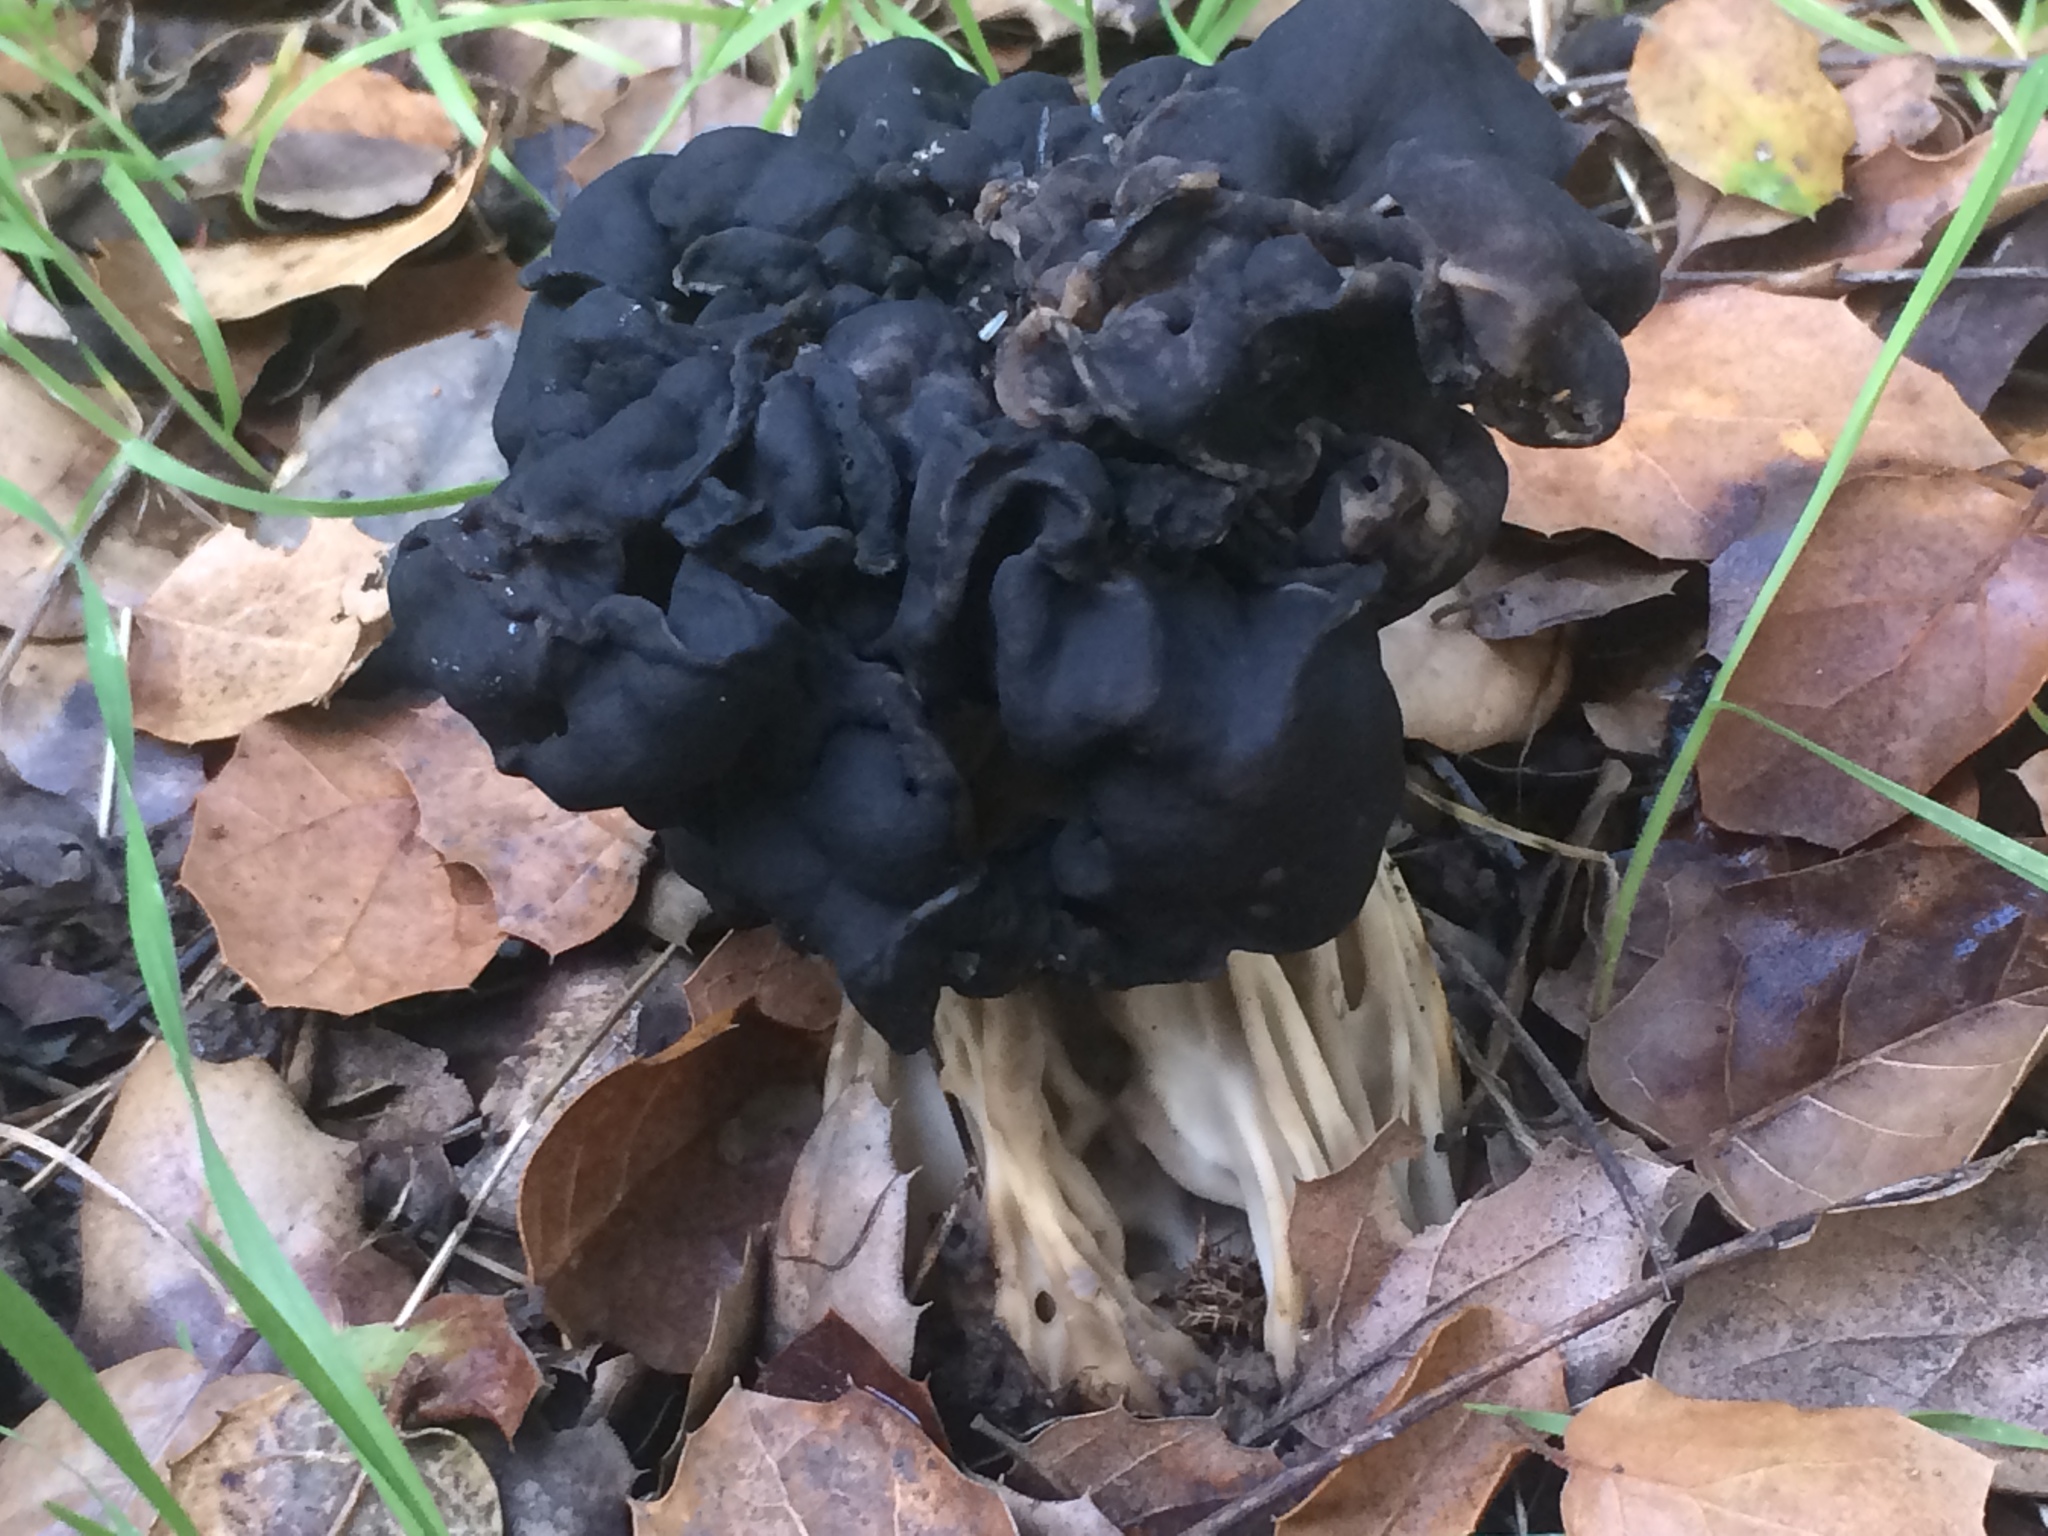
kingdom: Fungi
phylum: Ascomycota
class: Pezizomycetes
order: Pezizales
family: Helvellaceae
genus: Helvella
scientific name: Helvella dryophila
